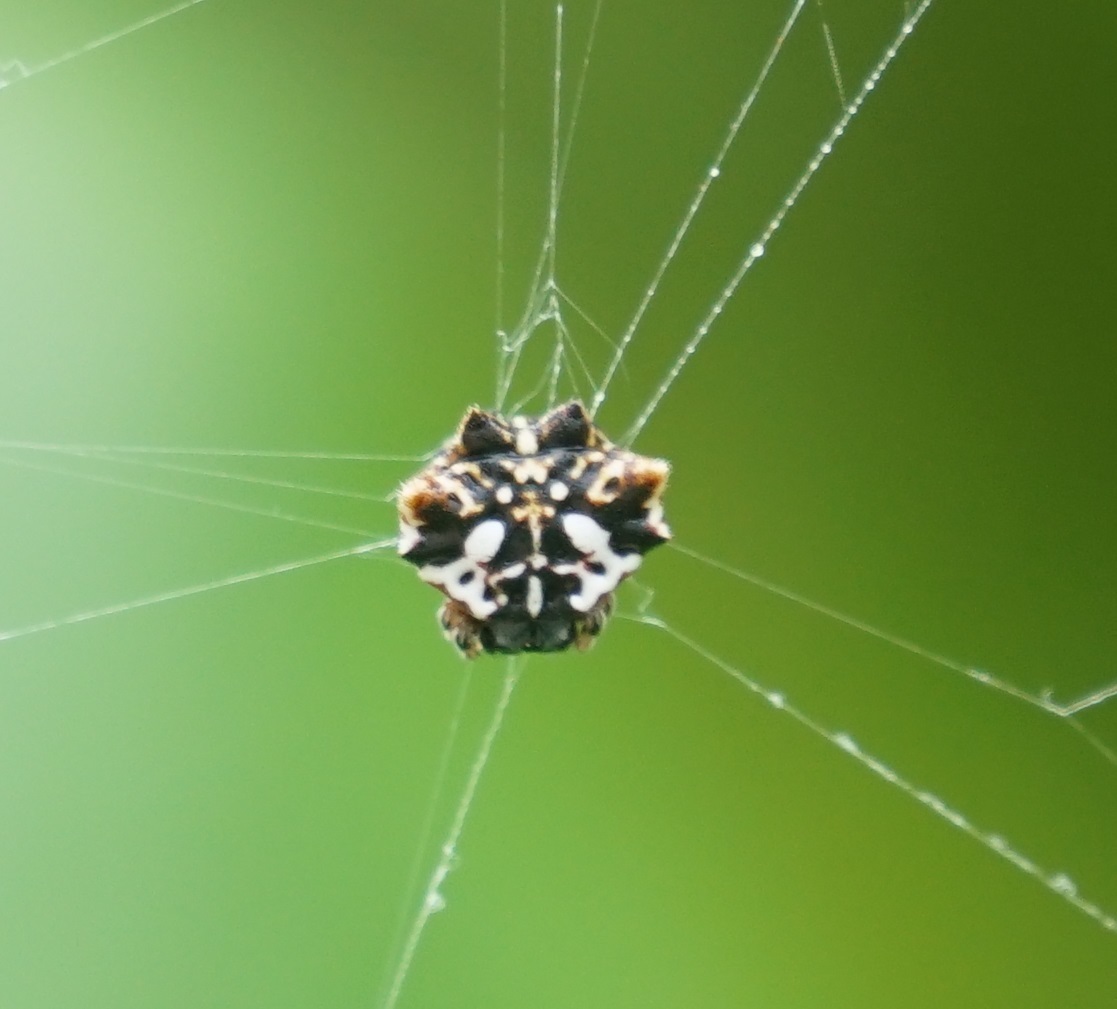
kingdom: Animalia
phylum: Arthropoda
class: Arachnida
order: Araneae
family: Araneidae
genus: Gasteracantha
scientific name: Gasteracantha sacerdotalis
